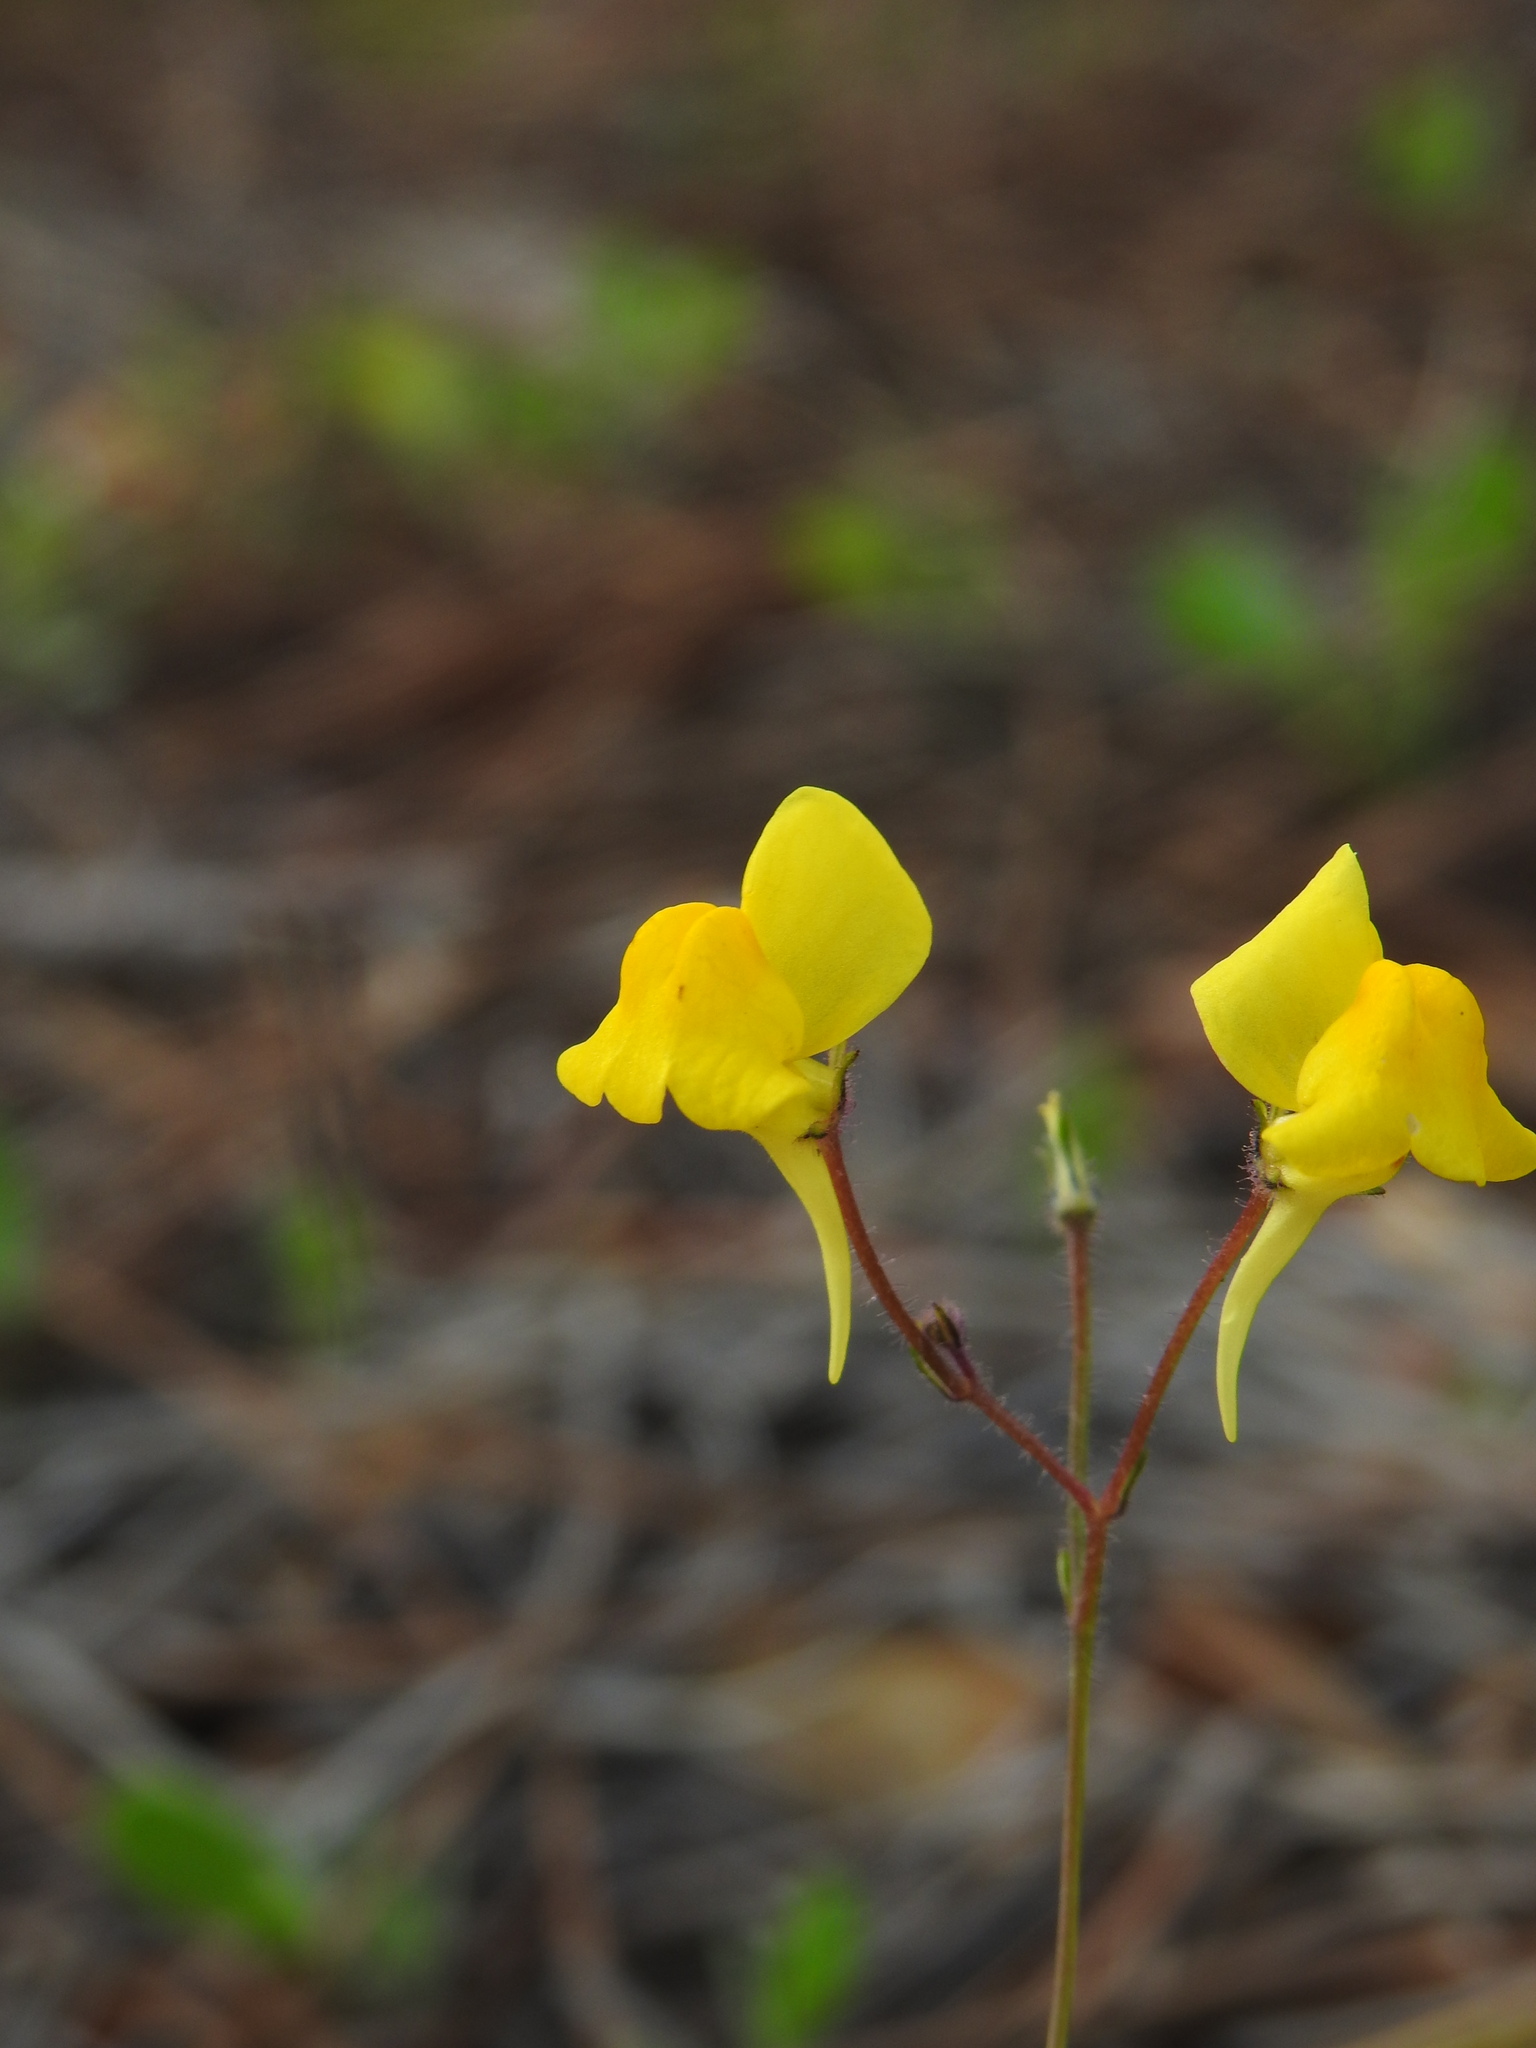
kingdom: Plantae
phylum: Tracheophyta
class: Magnoliopsida
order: Lamiales
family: Plantaginaceae
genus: Linaria
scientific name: Linaria spartea
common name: Ballast toadflax
